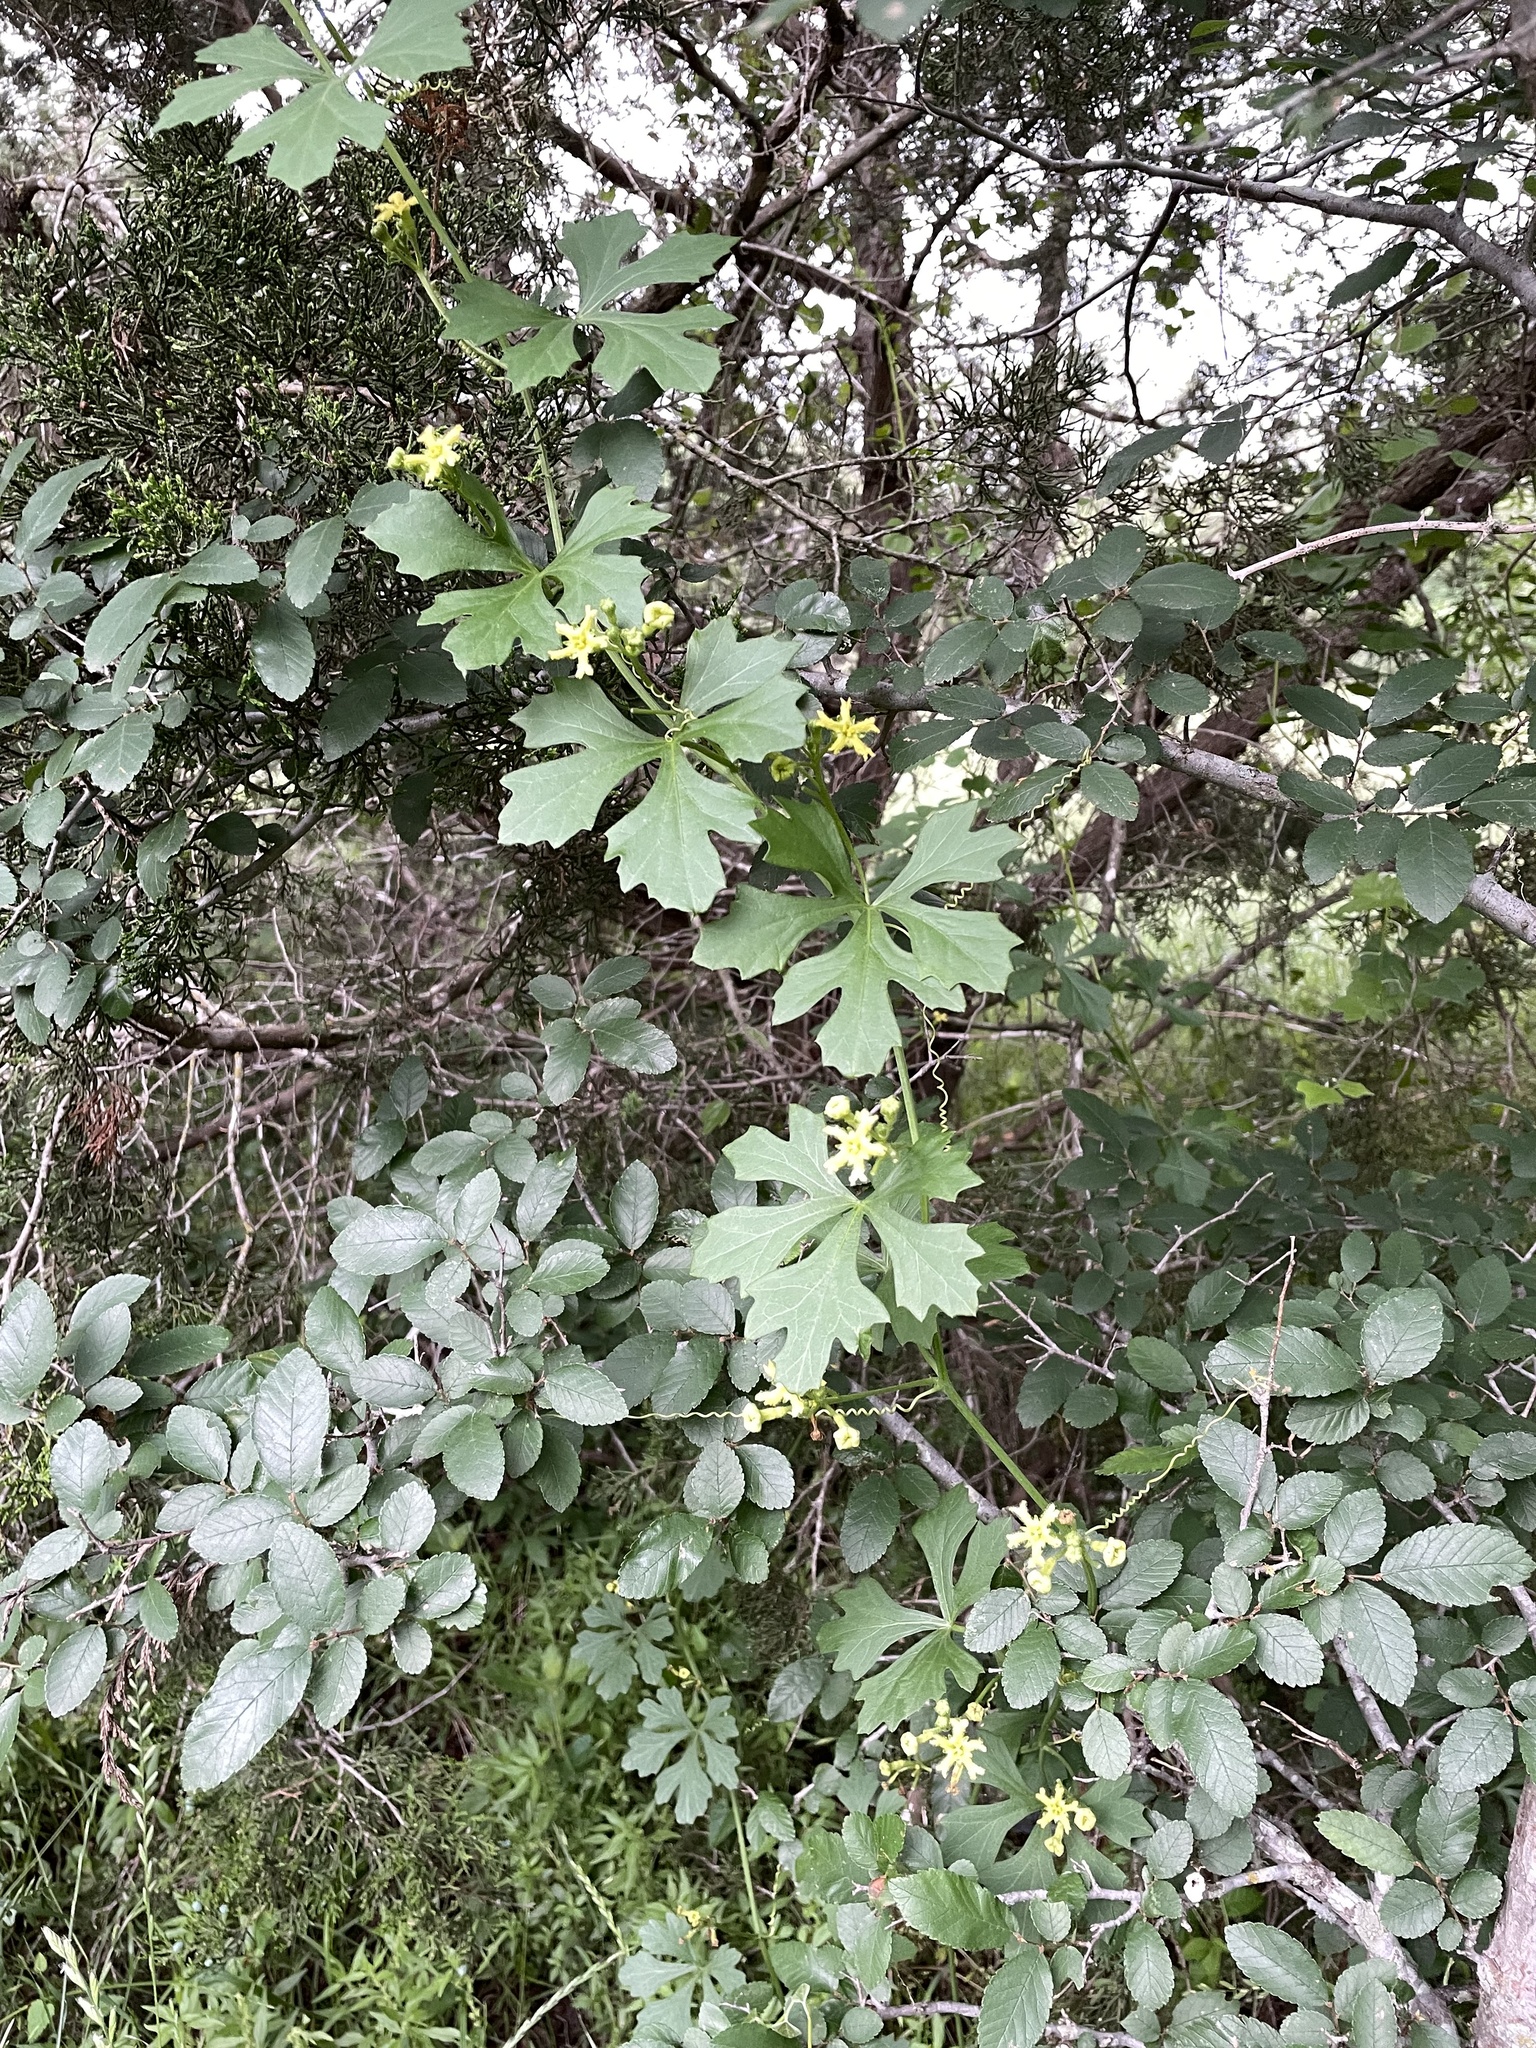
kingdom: Plantae
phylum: Tracheophyta
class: Magnoliopsida
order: Cucurbitales
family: Cucurbitaceae
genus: Ibervillea
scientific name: Ibervillea lindheimeri
